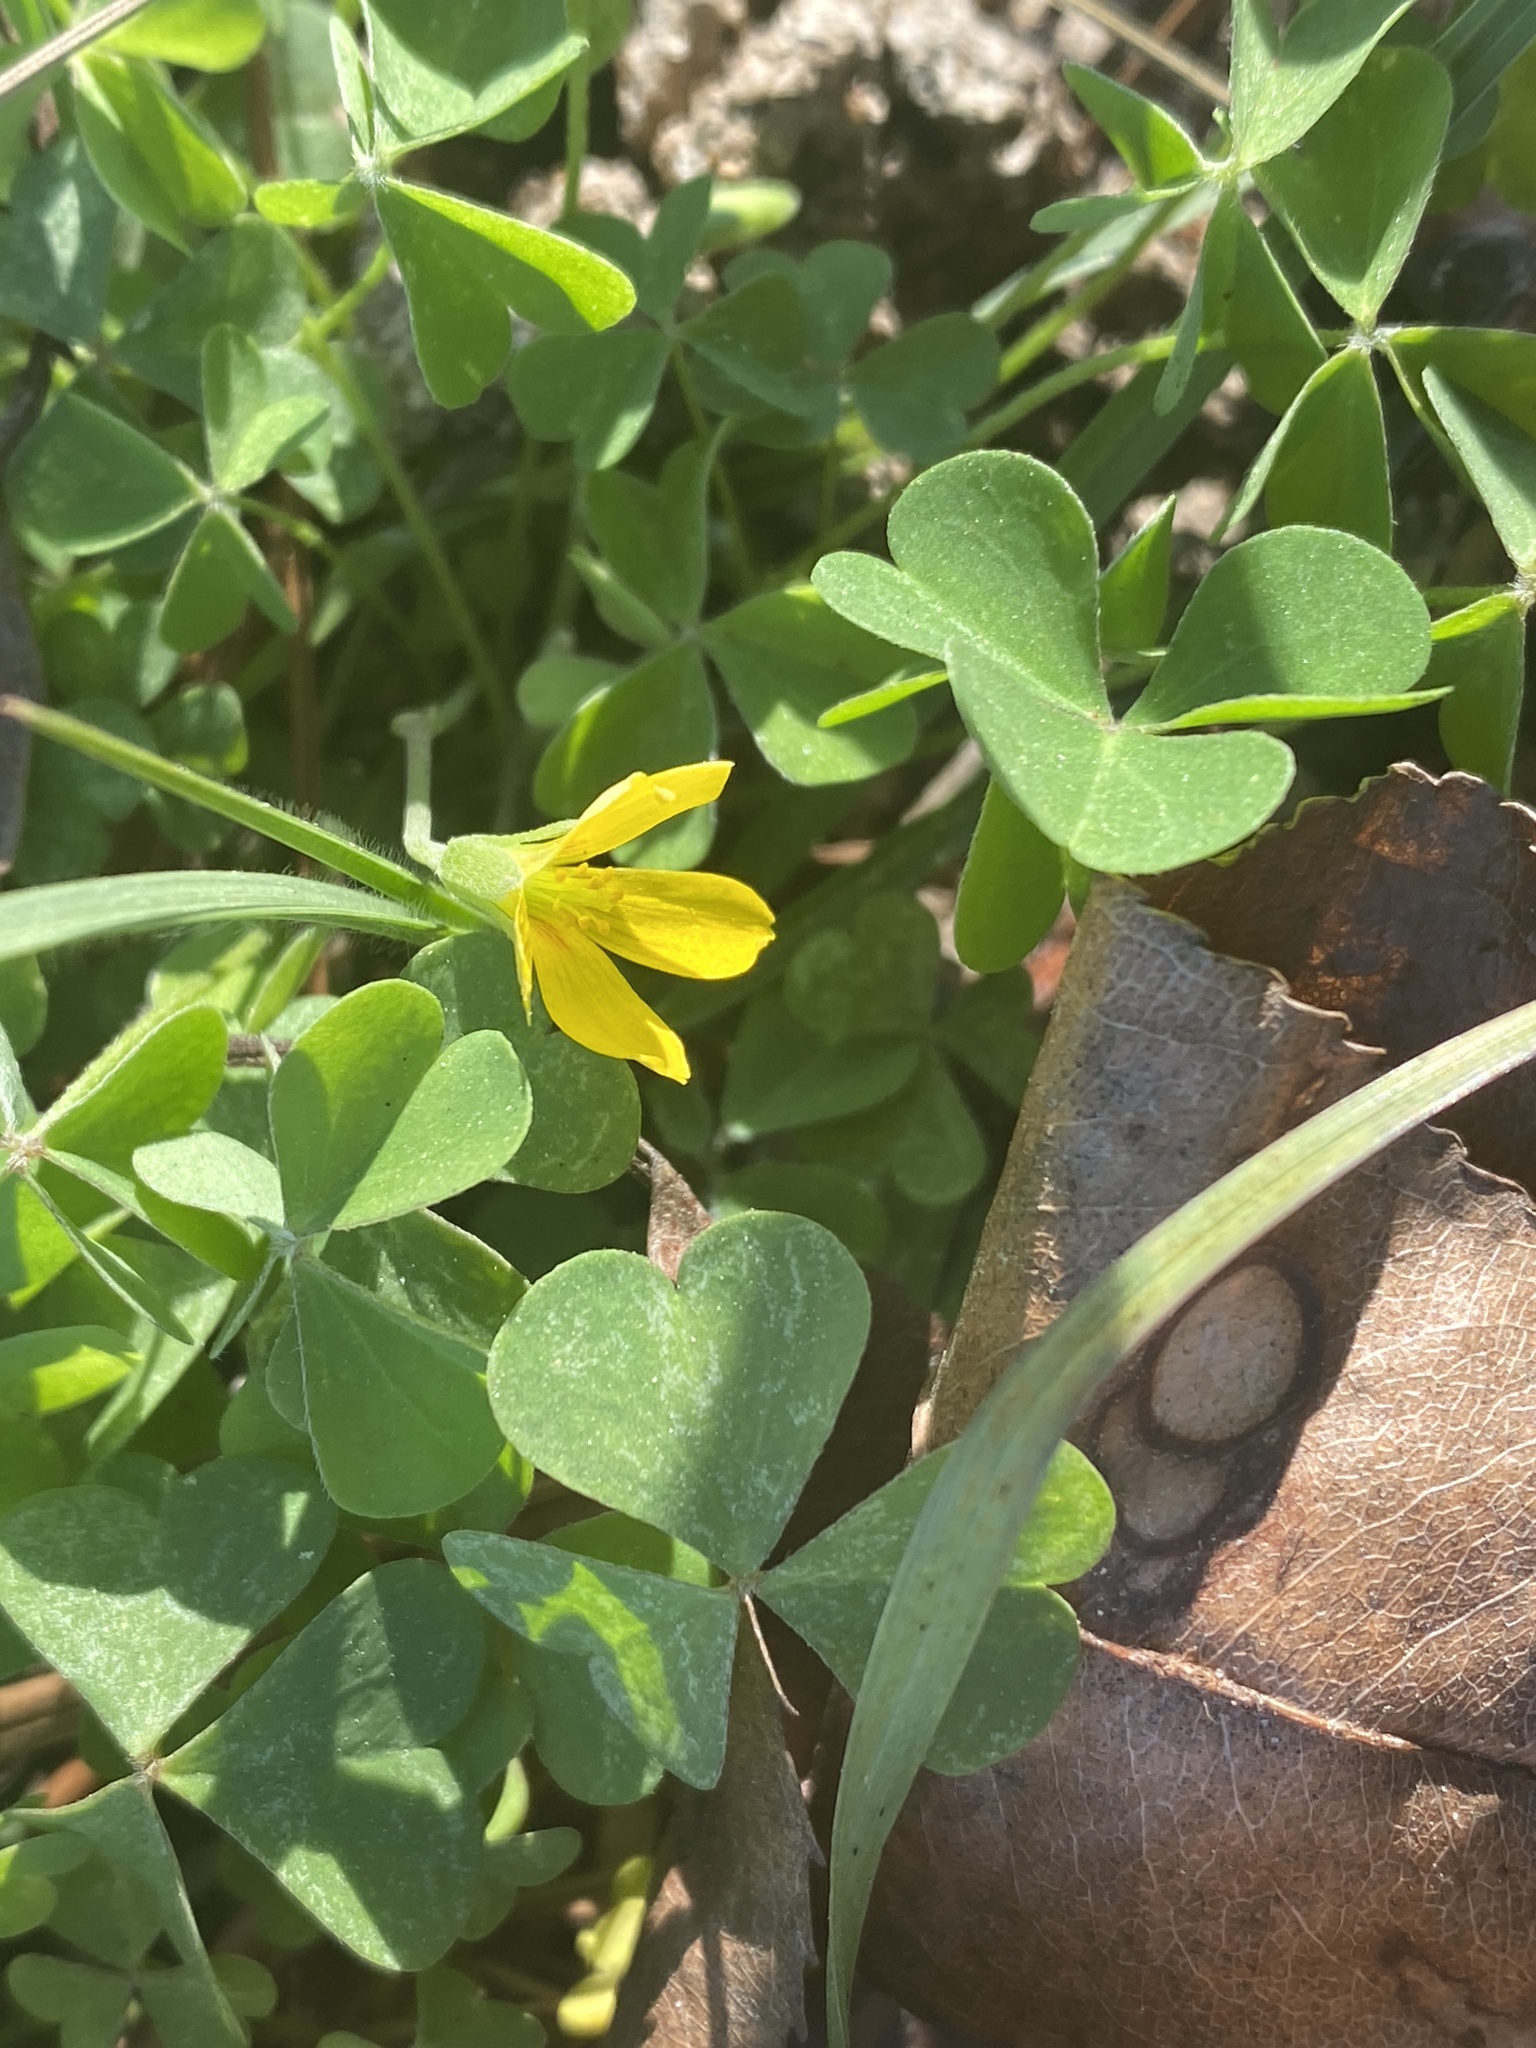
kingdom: Plantae
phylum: Tracheophyta
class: Magnoliopsida
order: Oxalidales
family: Oxalidaceae
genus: Oxalis
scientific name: Oxalis corniculata
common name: Procumbent yellow-sorrel
